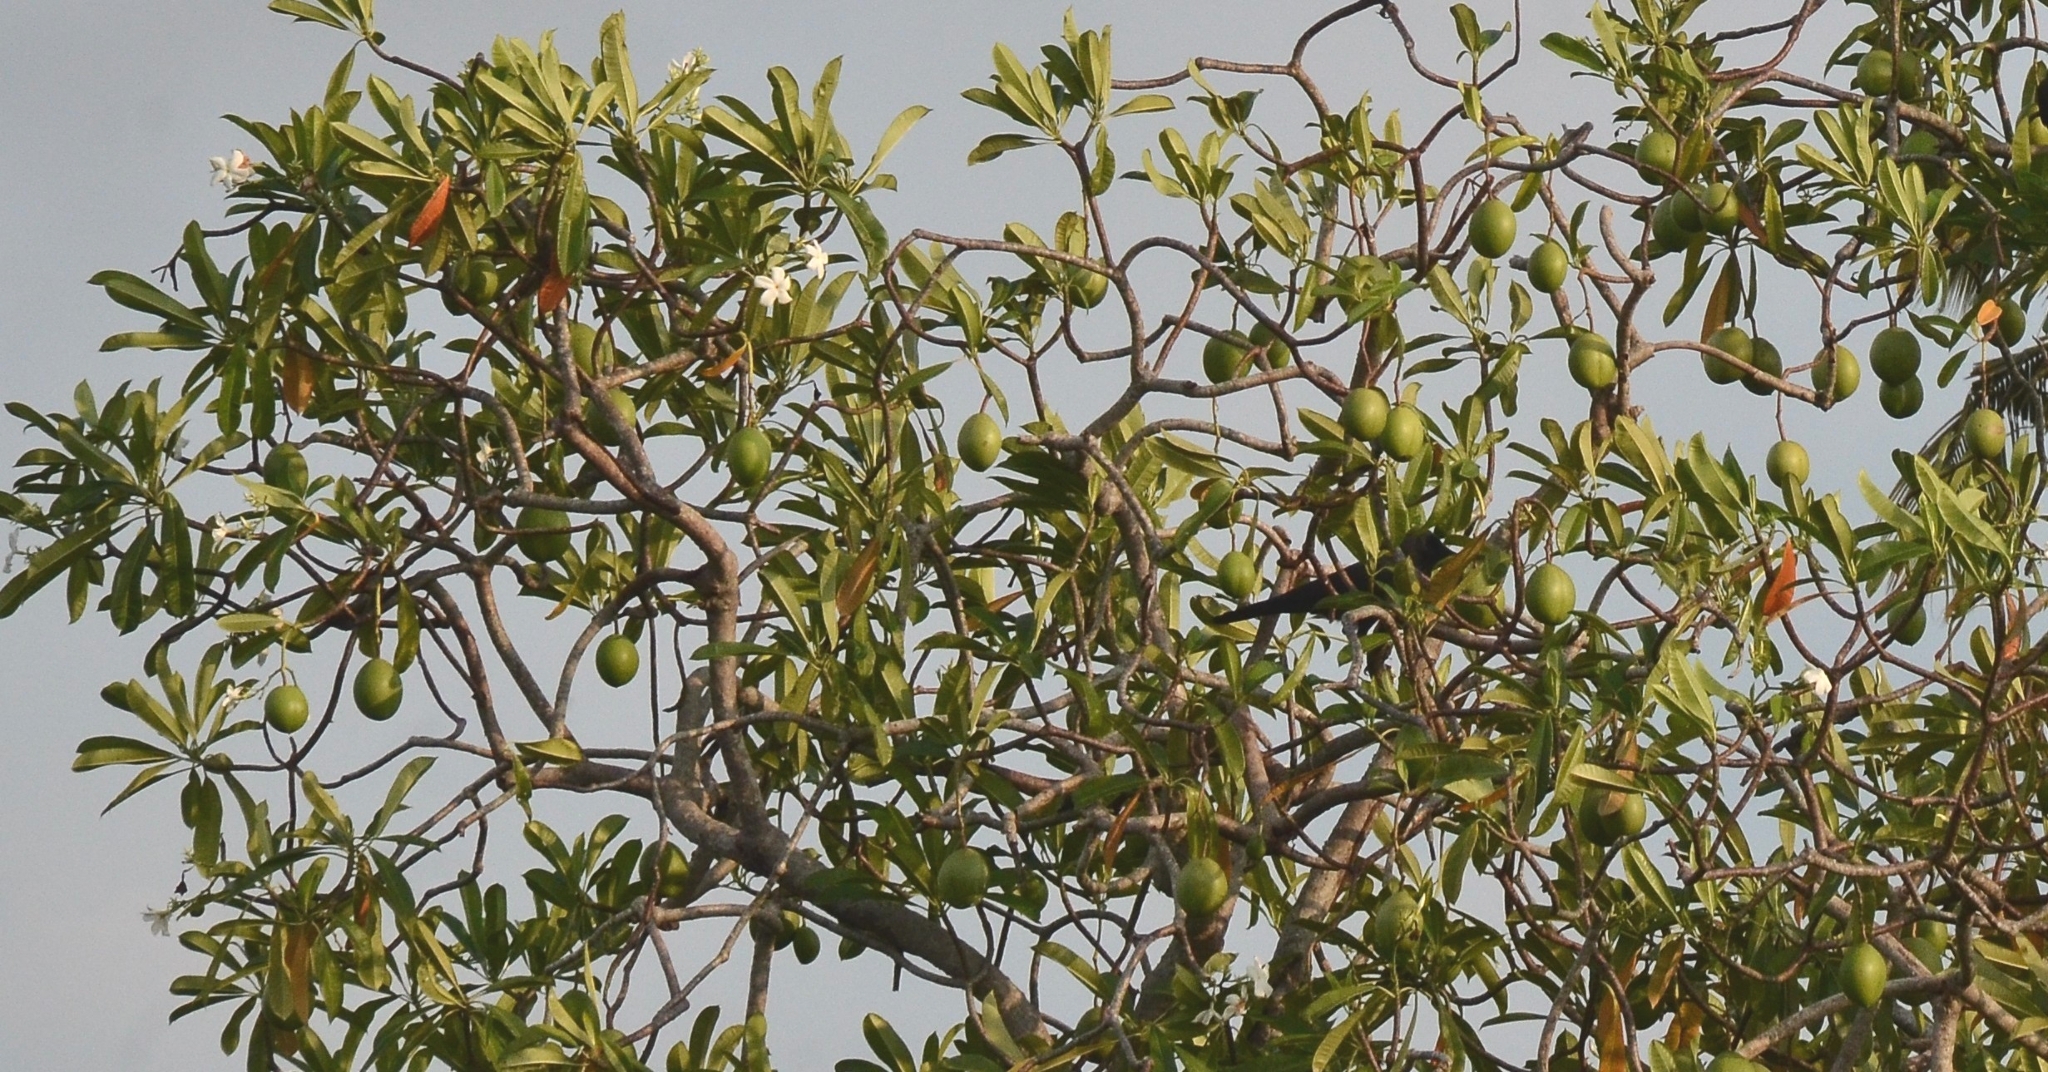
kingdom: Plantae
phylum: Tracheophyta
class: Magnoliopsida
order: Gentianales
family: Apocynaceae
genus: Cerbera
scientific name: Cerbera odollam
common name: Pong-pong
